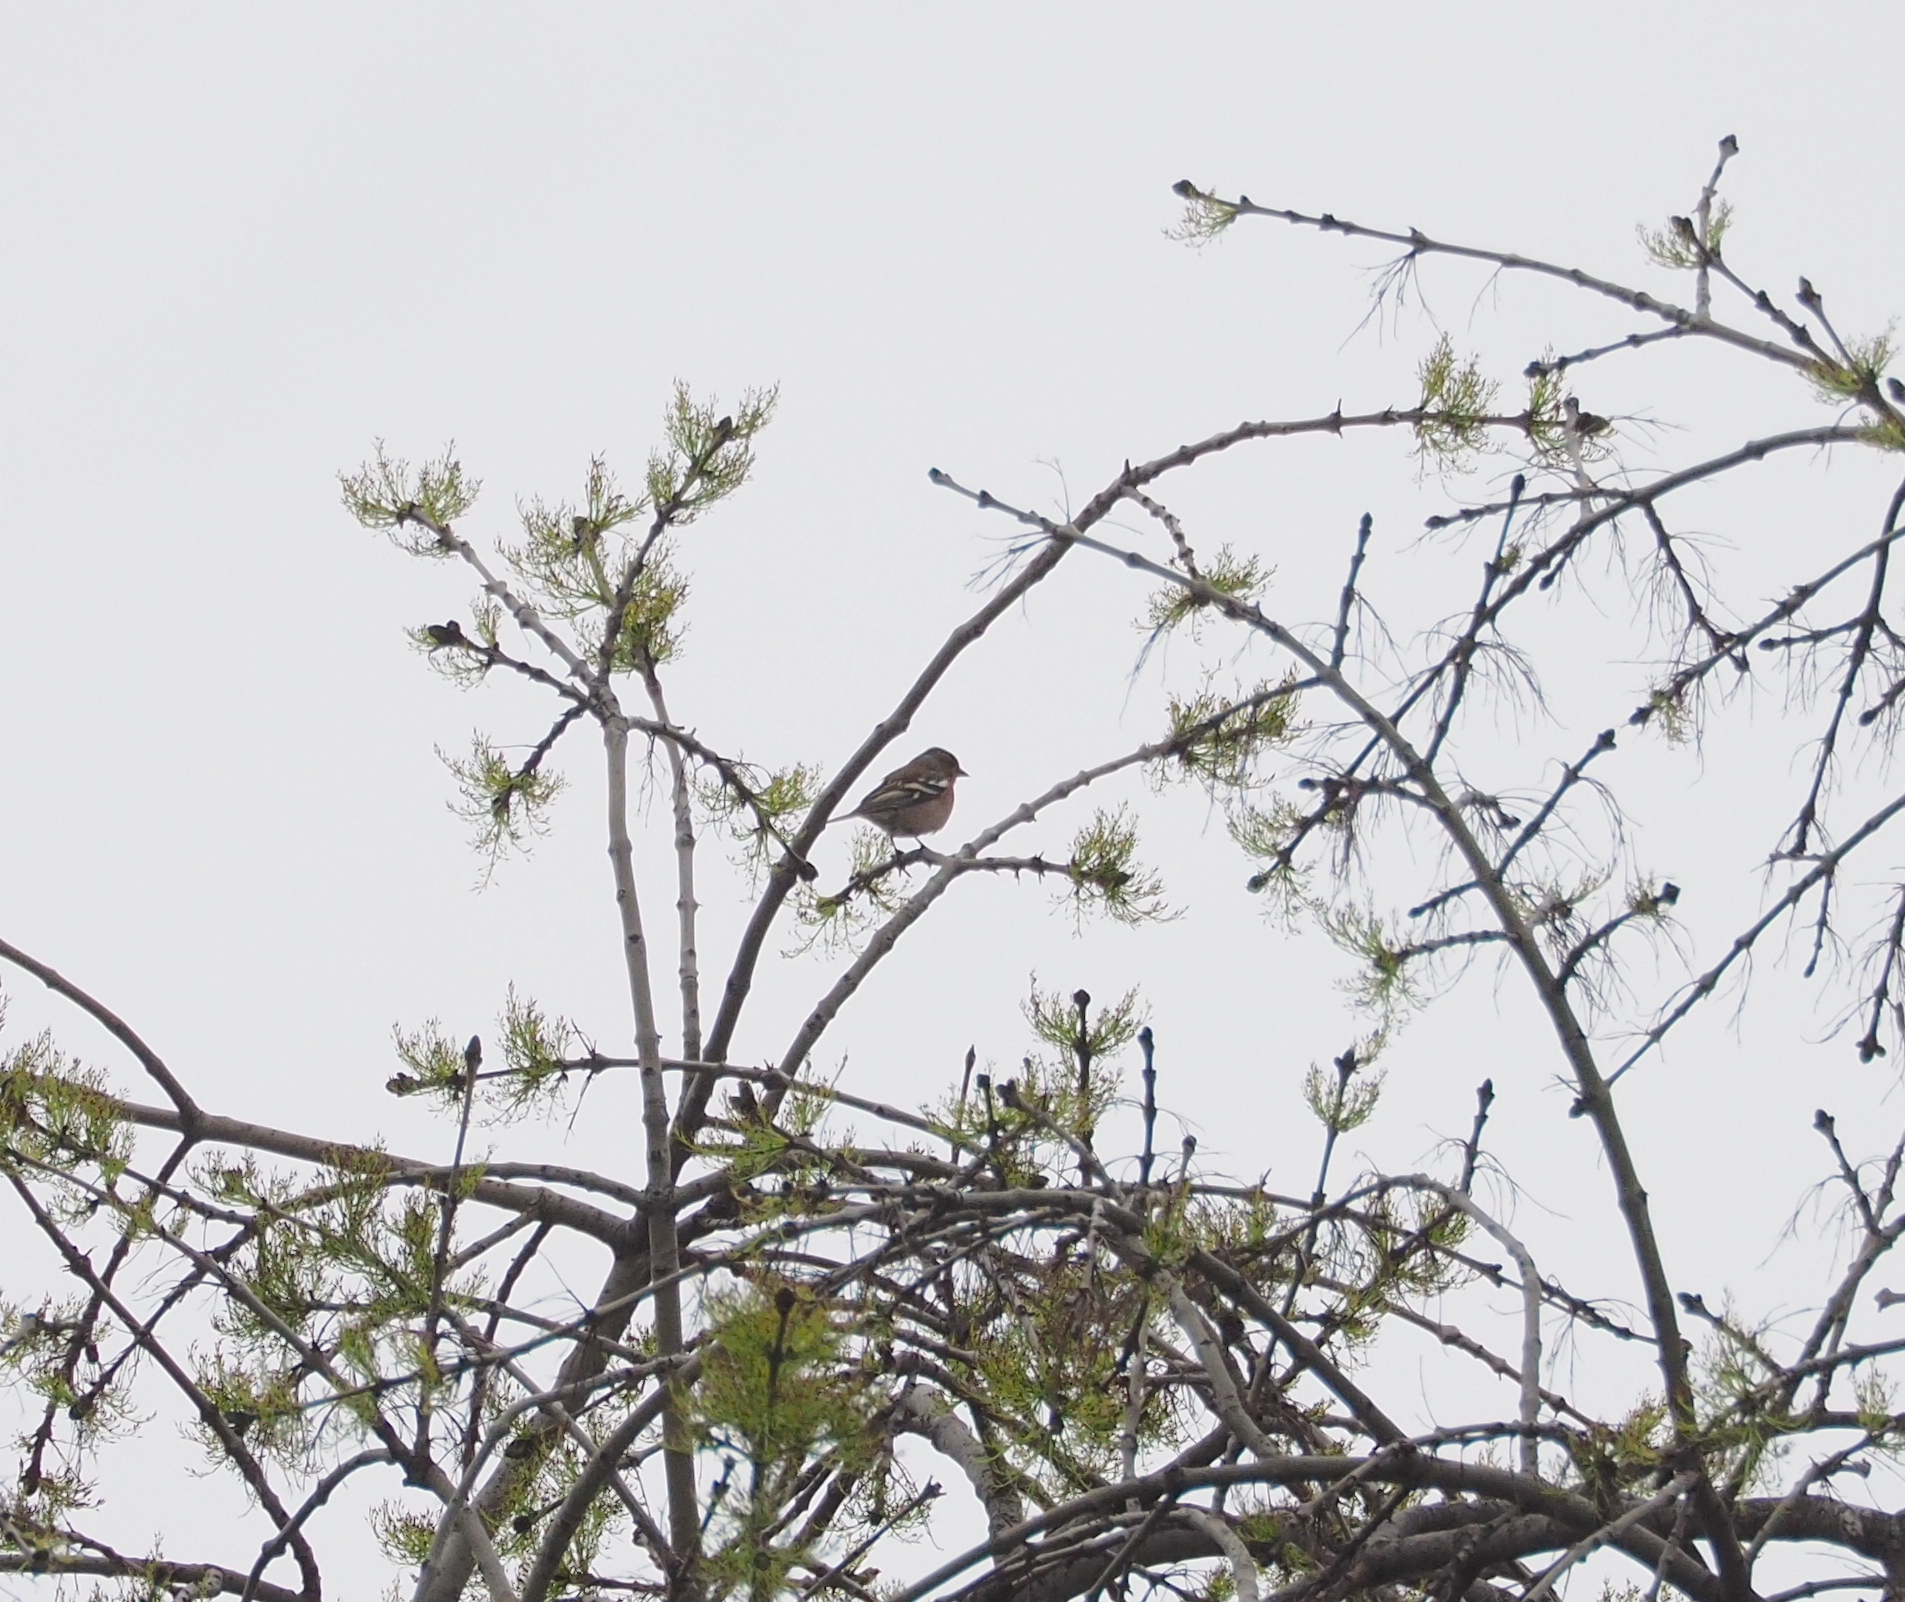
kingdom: Animalia
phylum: Chordata
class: Aves
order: Passeriformes
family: Fringillidae
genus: Fringilla
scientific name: Fringilla coelebs
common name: Common chaffinch
